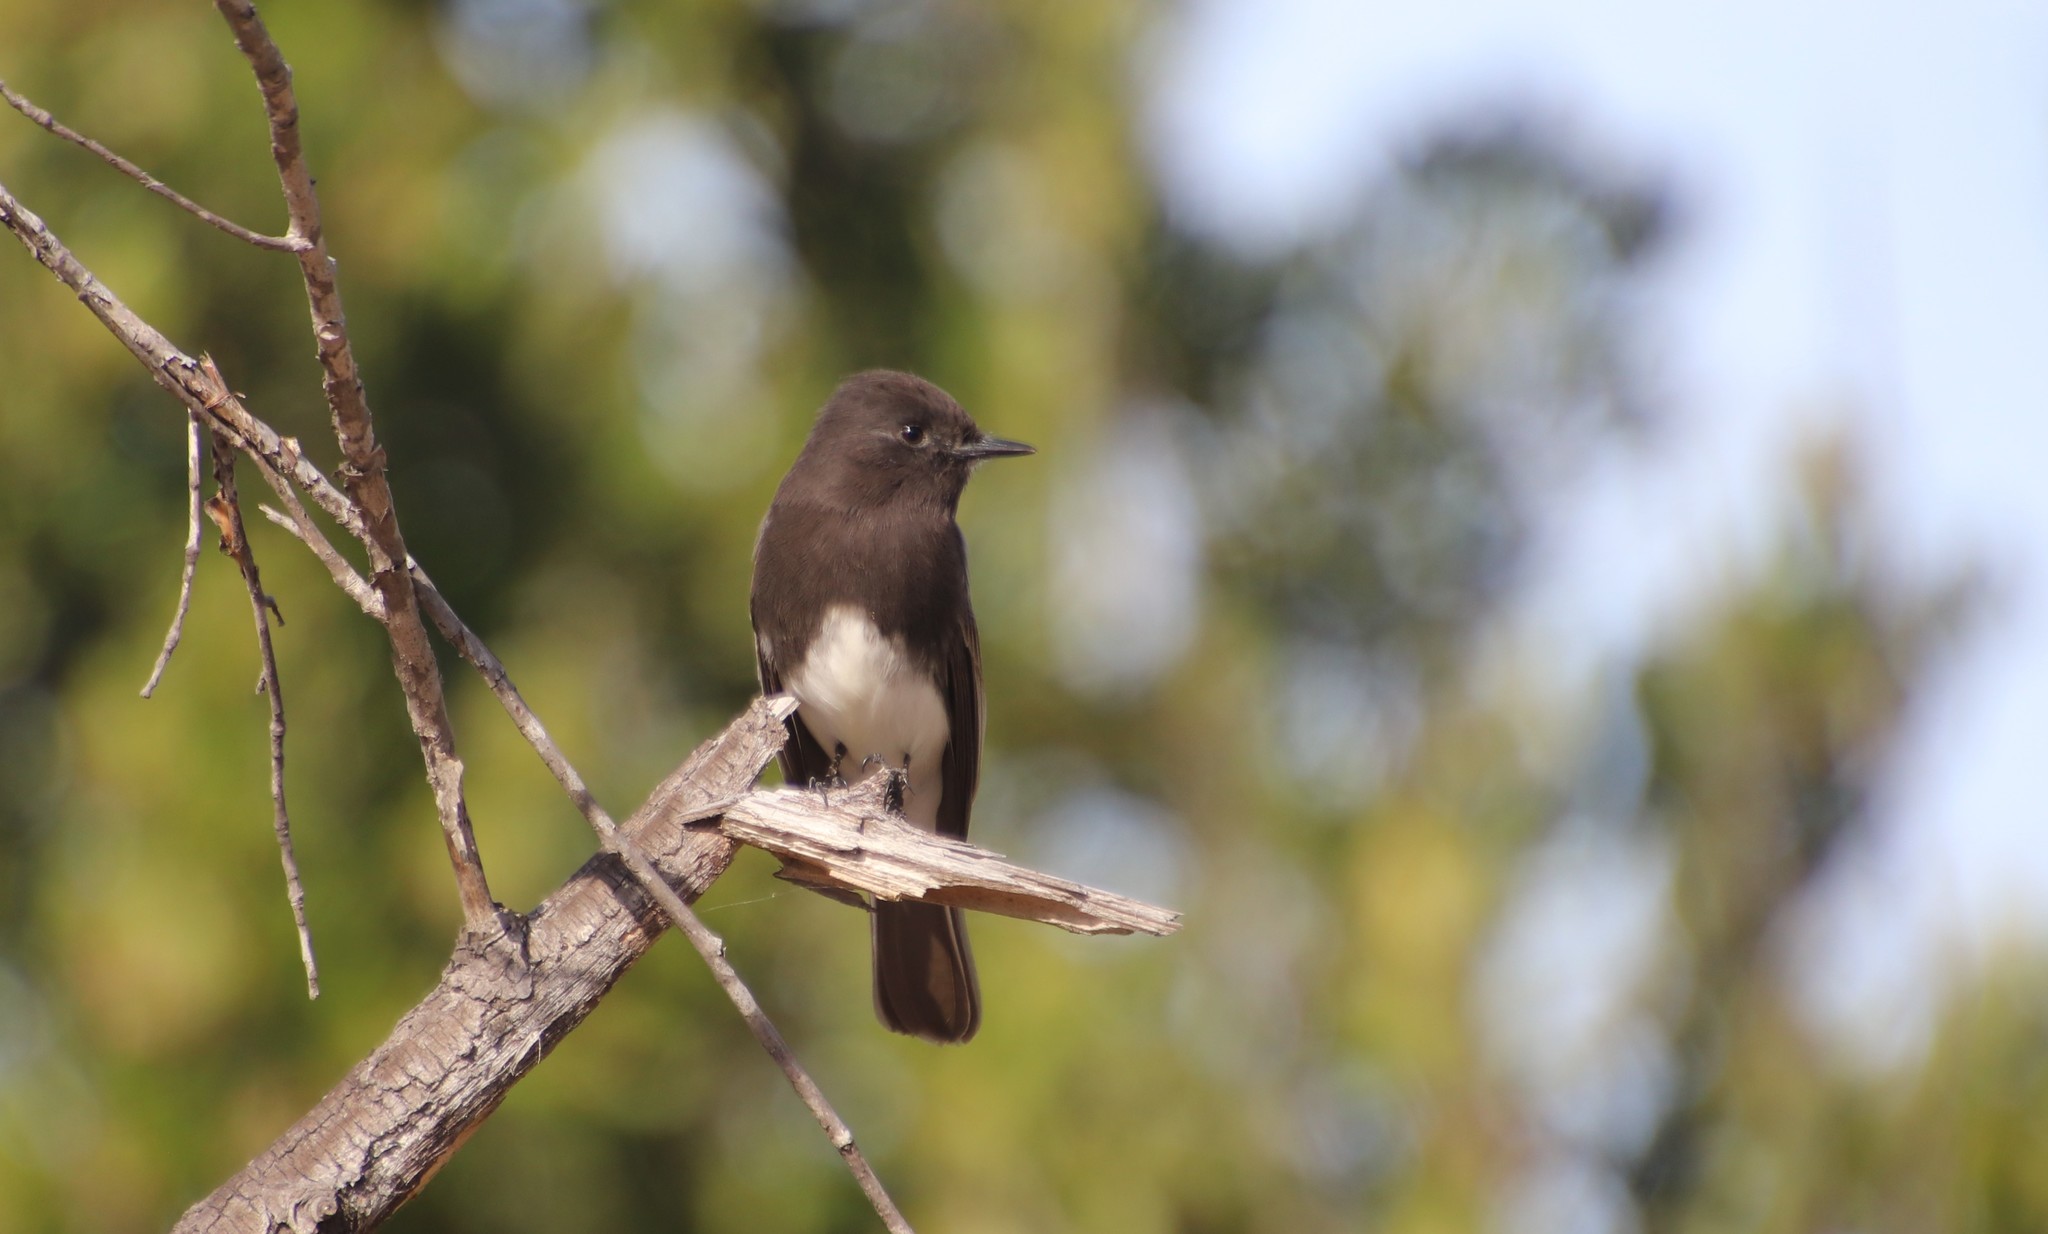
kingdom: Animalia
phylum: Chordata
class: Aves
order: Passeriformes
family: Tyrannidae
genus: Sayornis
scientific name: Sayornis nigricans
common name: Black phoebe
